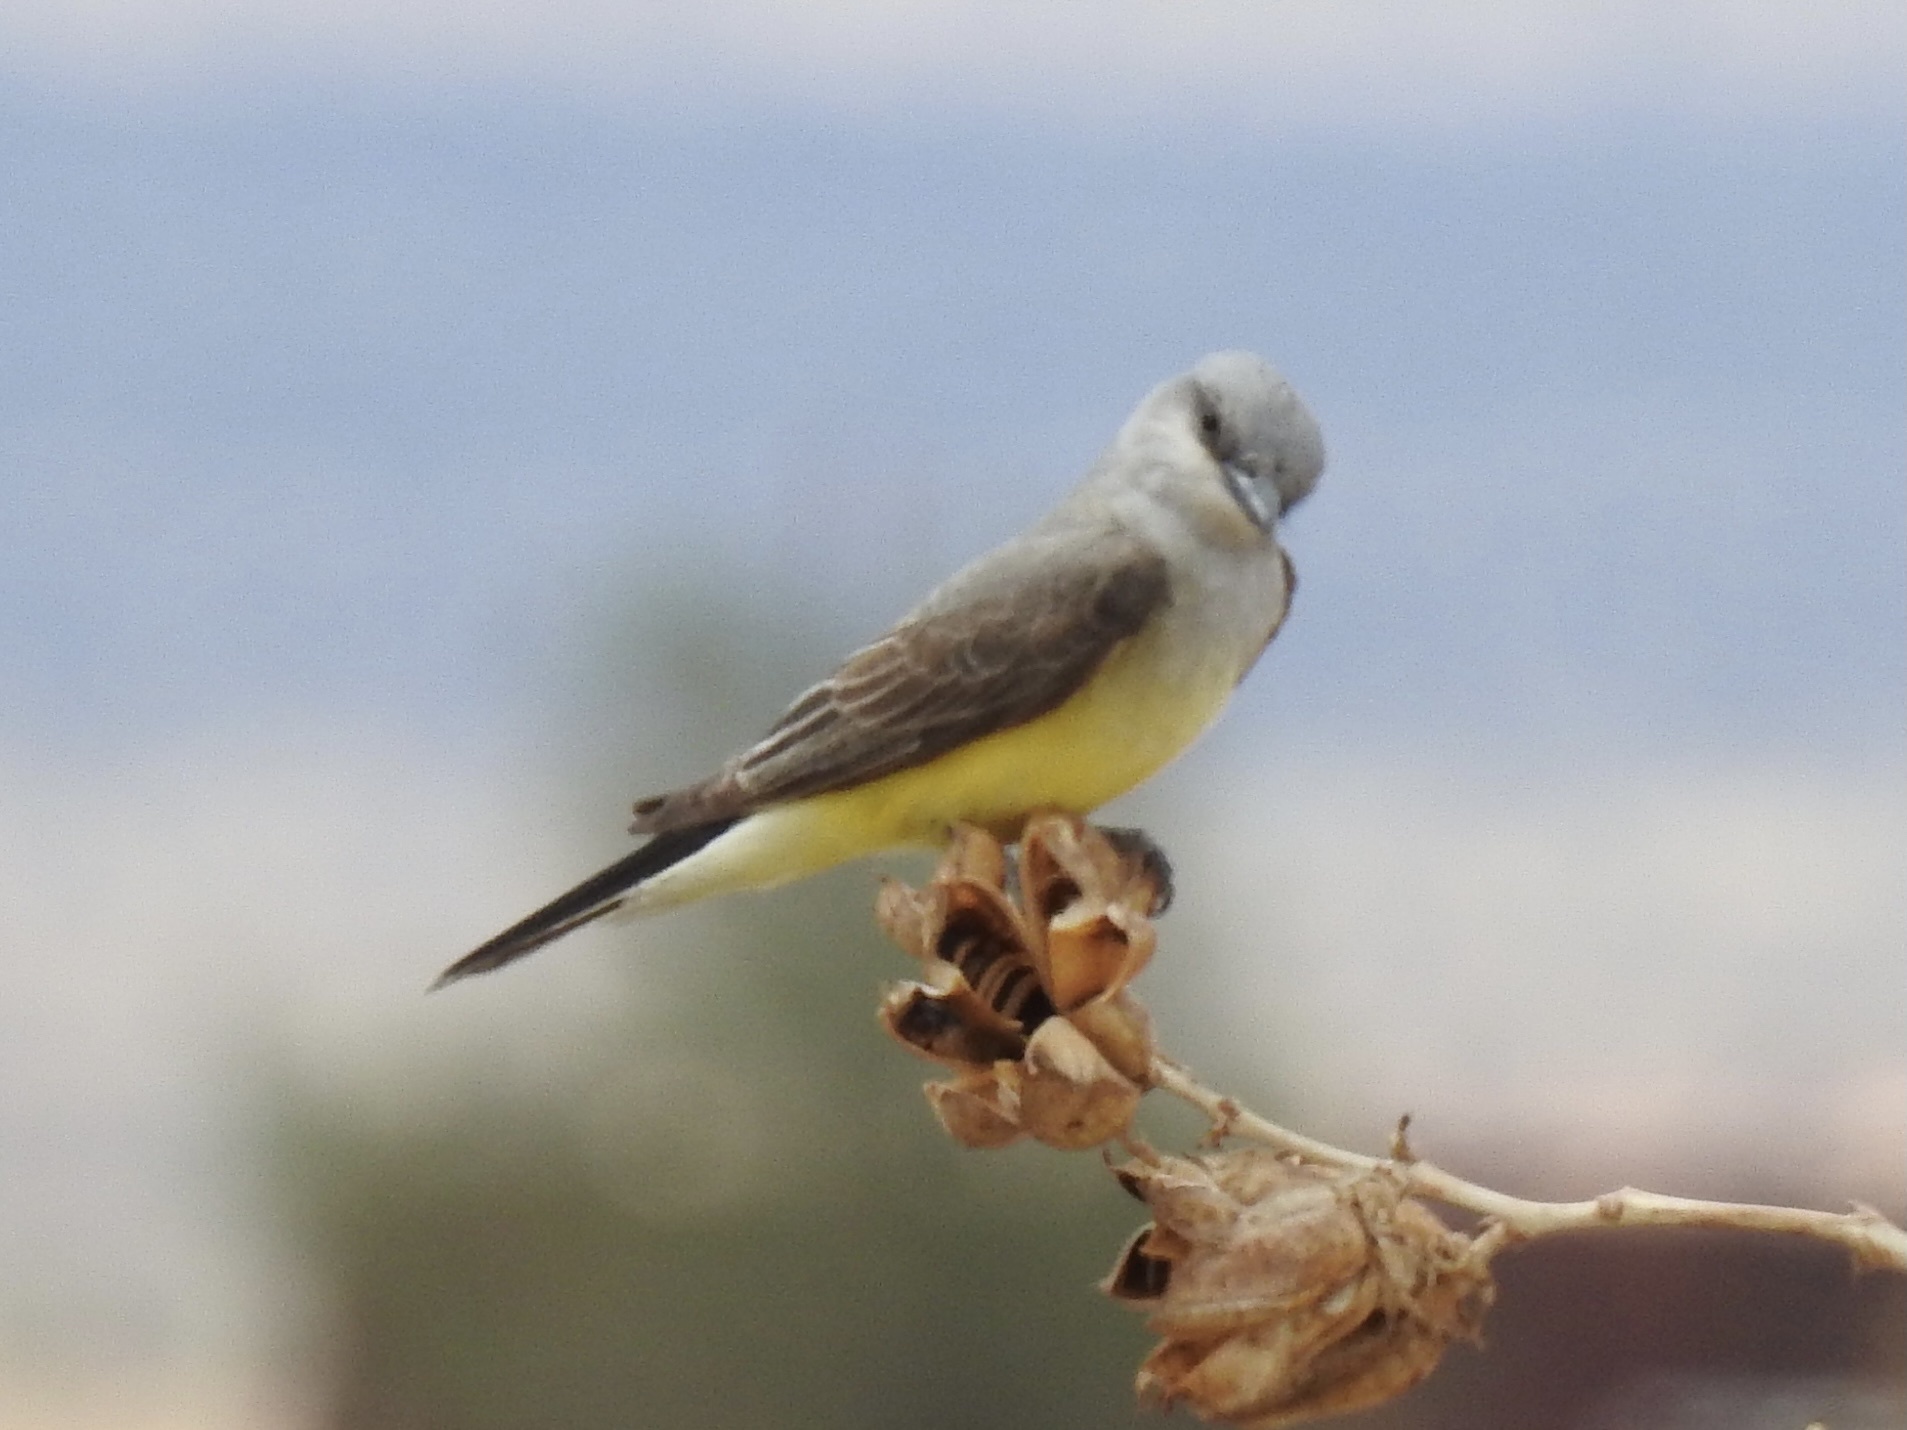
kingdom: Animalia
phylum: Chordata
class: Aves
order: Passeriformes
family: Tyrannidae
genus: Tyrannus
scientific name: Tyrannus verticalis
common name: Western kingbird
